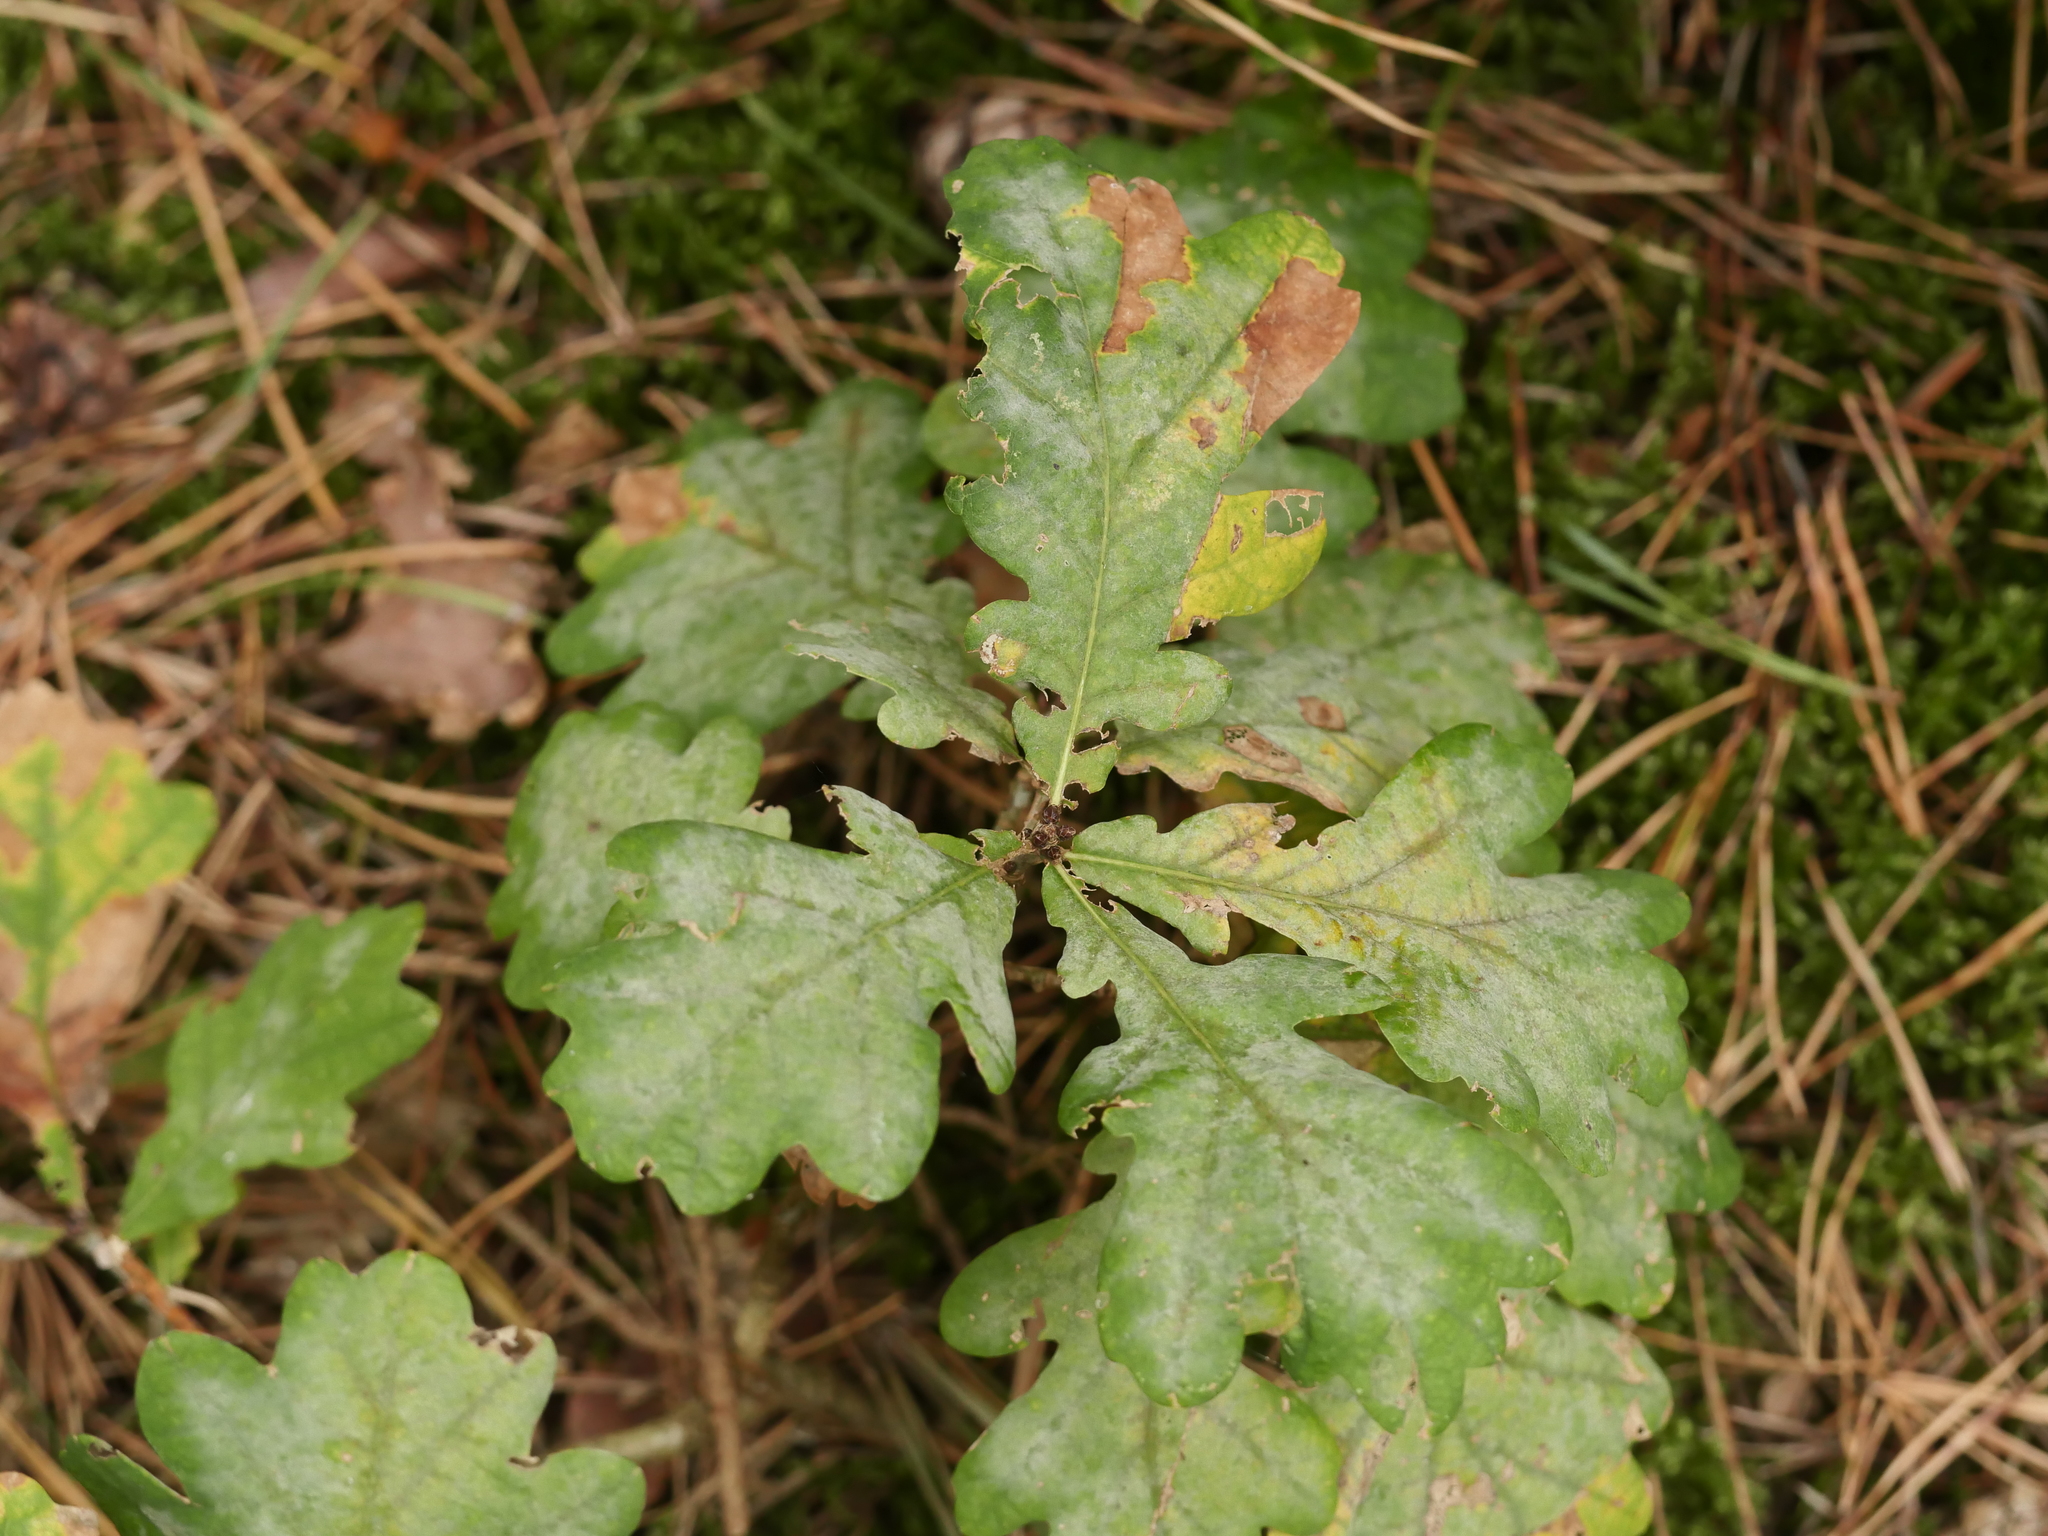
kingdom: Plantae
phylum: Tracheophyta
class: Magnoliopsida
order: Fagales
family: Fagaceae
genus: Quercus
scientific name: Quercus robur
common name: Pedunculate oak
